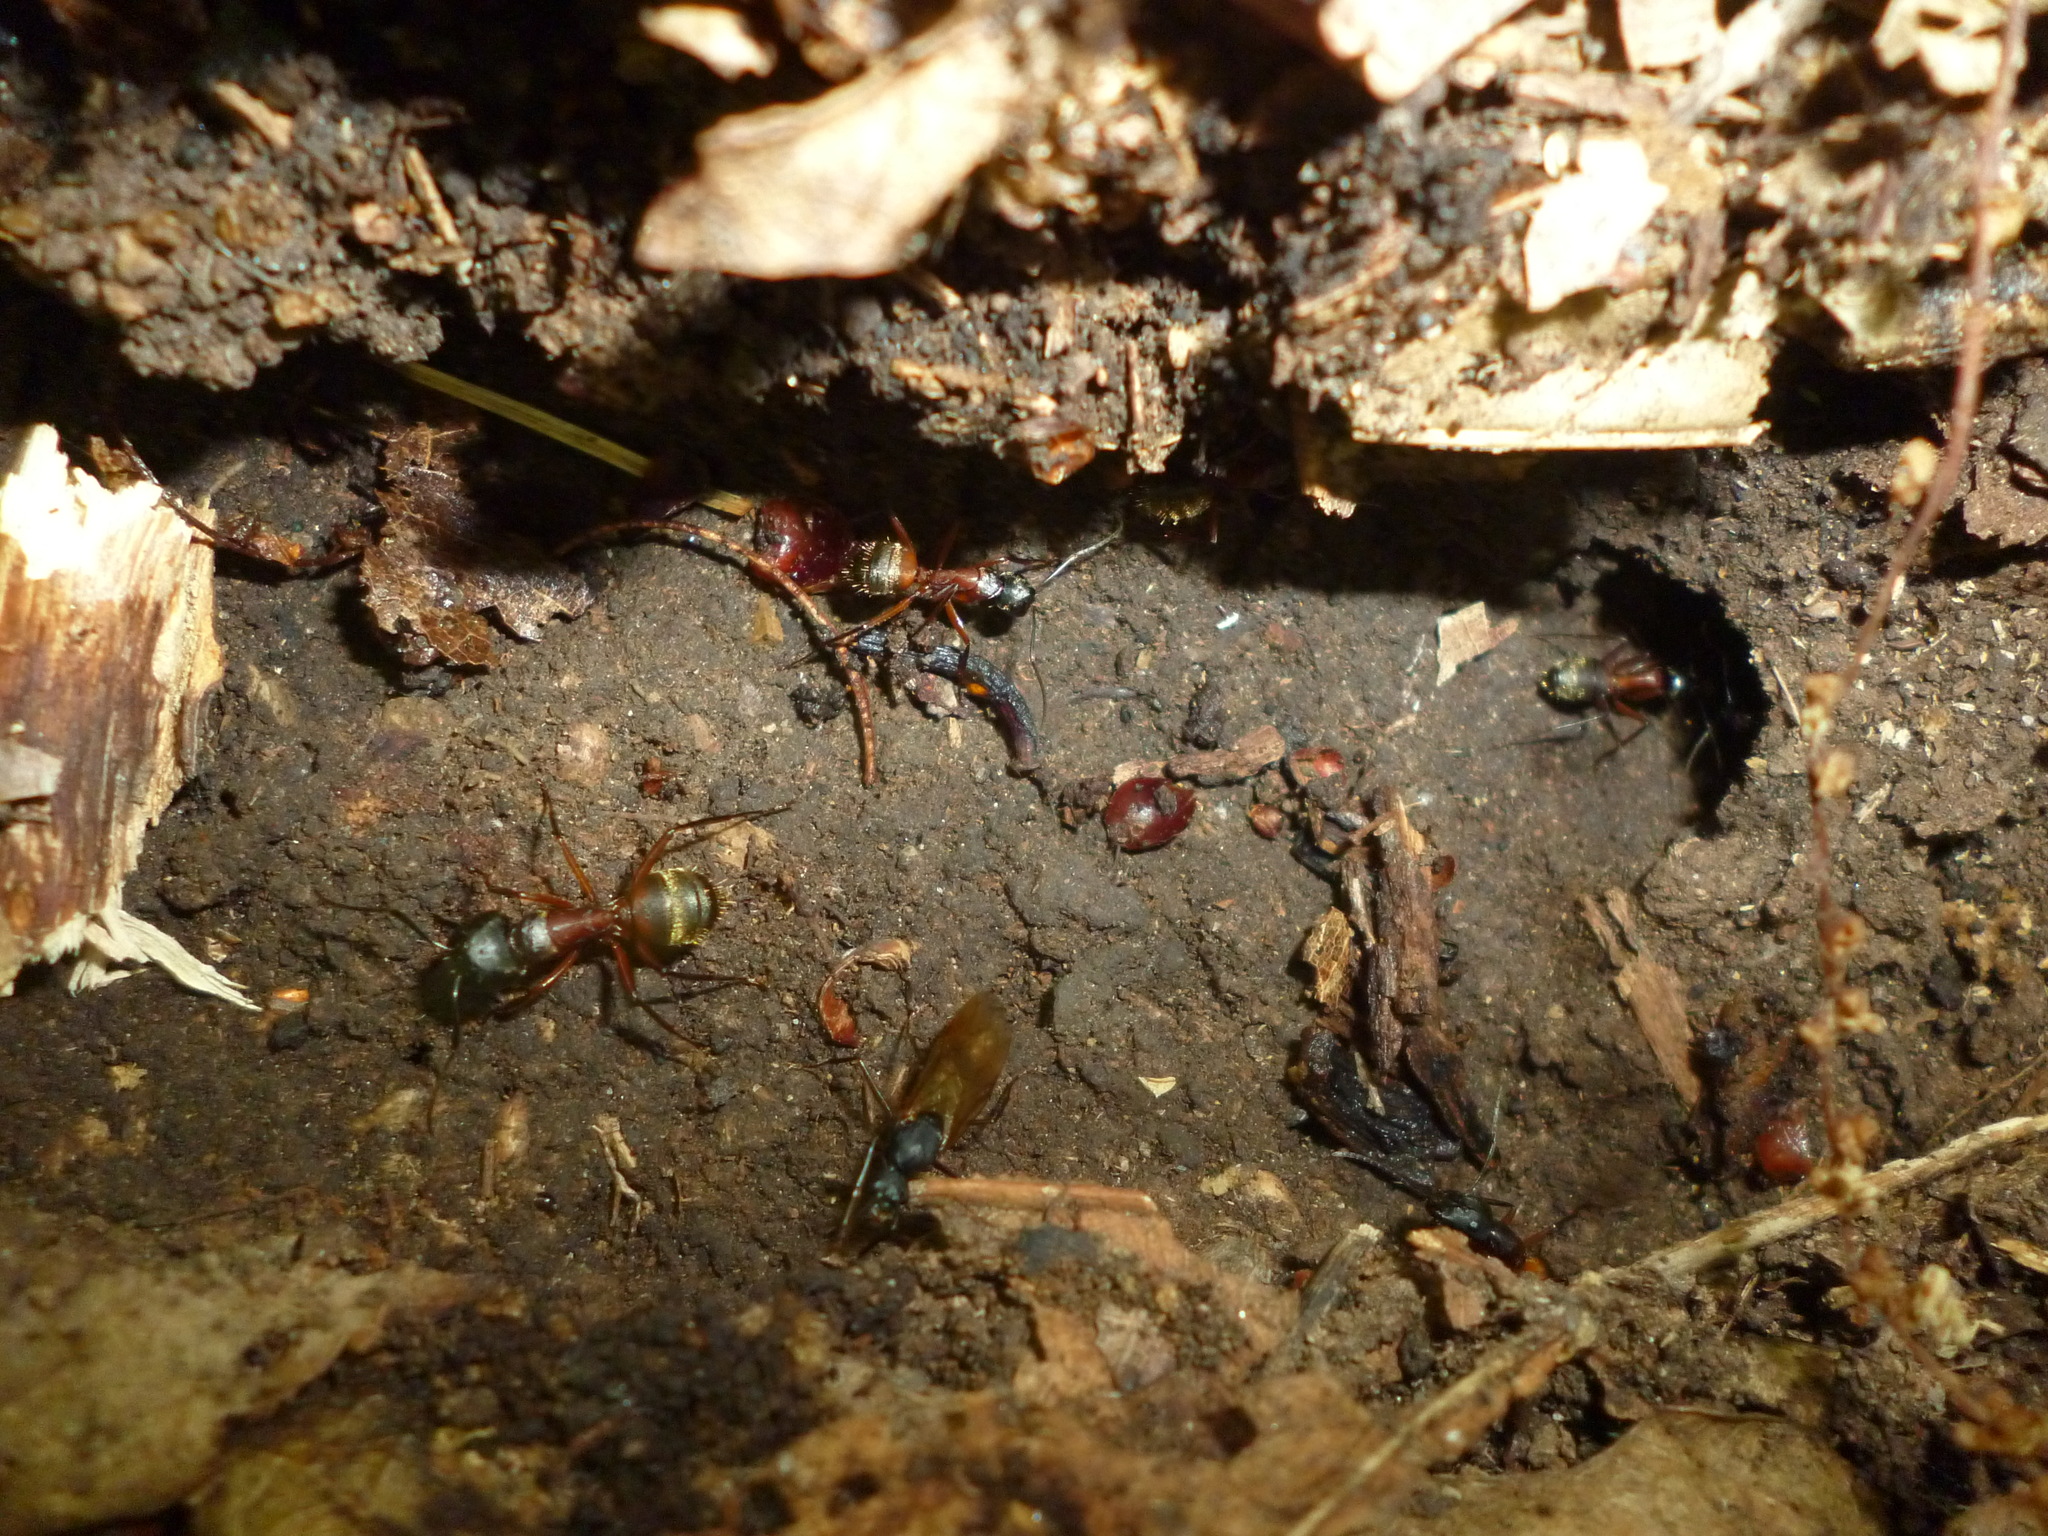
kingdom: Animalia
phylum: Arthropoda
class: Insecta
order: Hymenoptera
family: Formicidae
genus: Camponotus
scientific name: Camponotus chromaiodes
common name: Red carpenter ant
